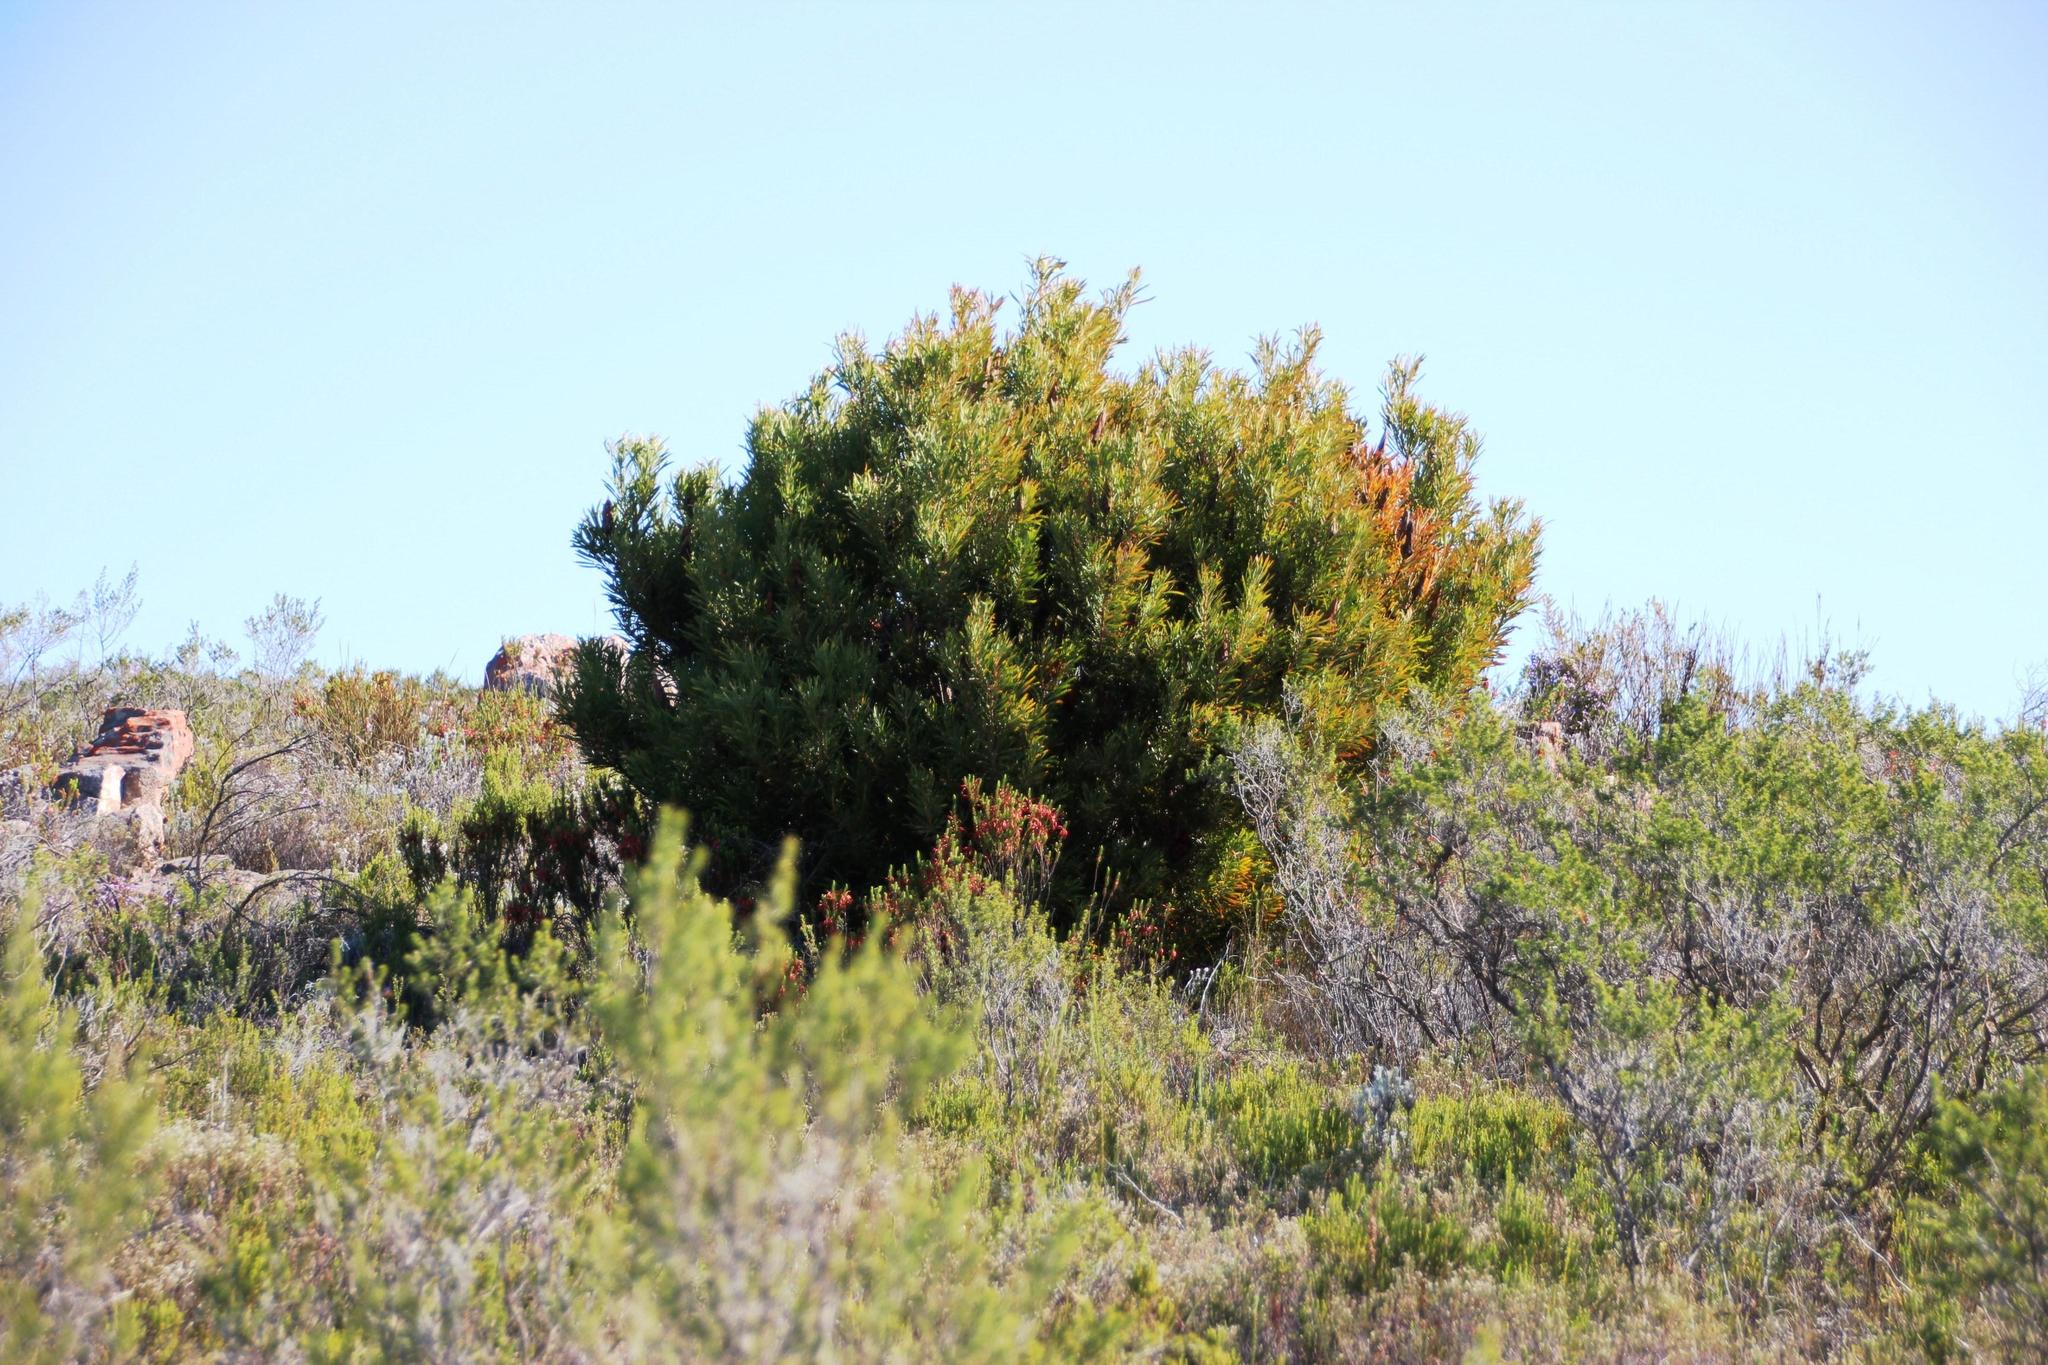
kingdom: Plantae
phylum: Tracheophyta
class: Magnoliopsida
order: Proteales
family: Proteaceae
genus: Protea
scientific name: Protea repens
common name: Sugarbush
